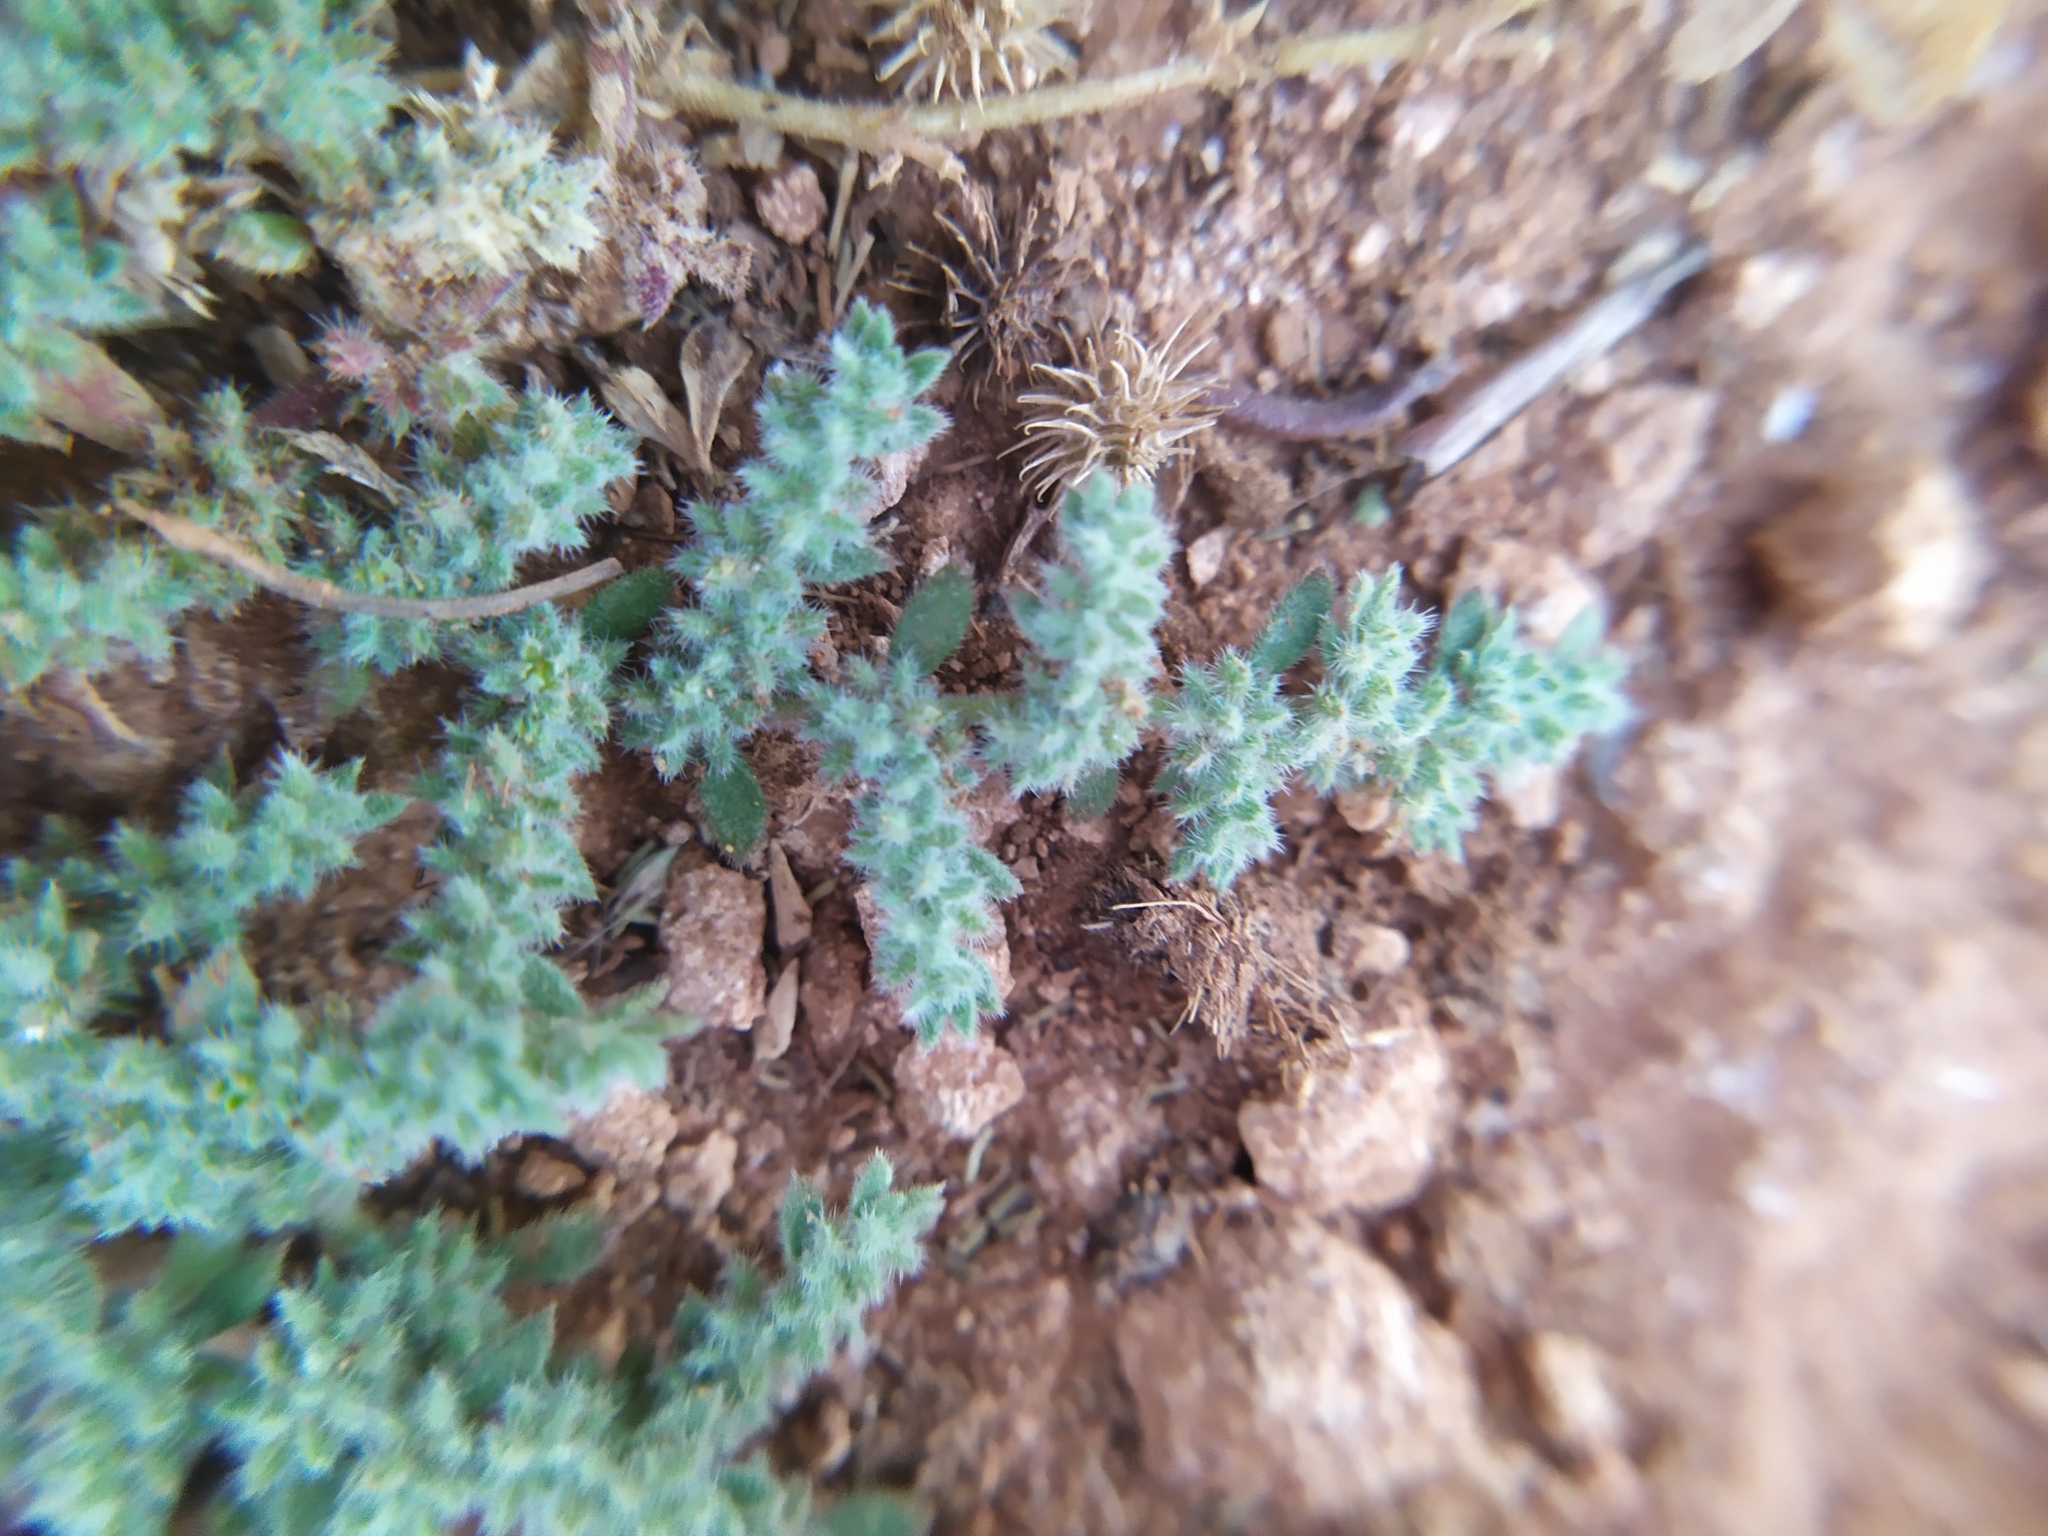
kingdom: Plantae
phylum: Tracheophyta
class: Magnoliopsida
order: Caryophyllales
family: Caryophyllaceae
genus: Herniaria
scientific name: Herniaria cinerea
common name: Hairy rupturewort
